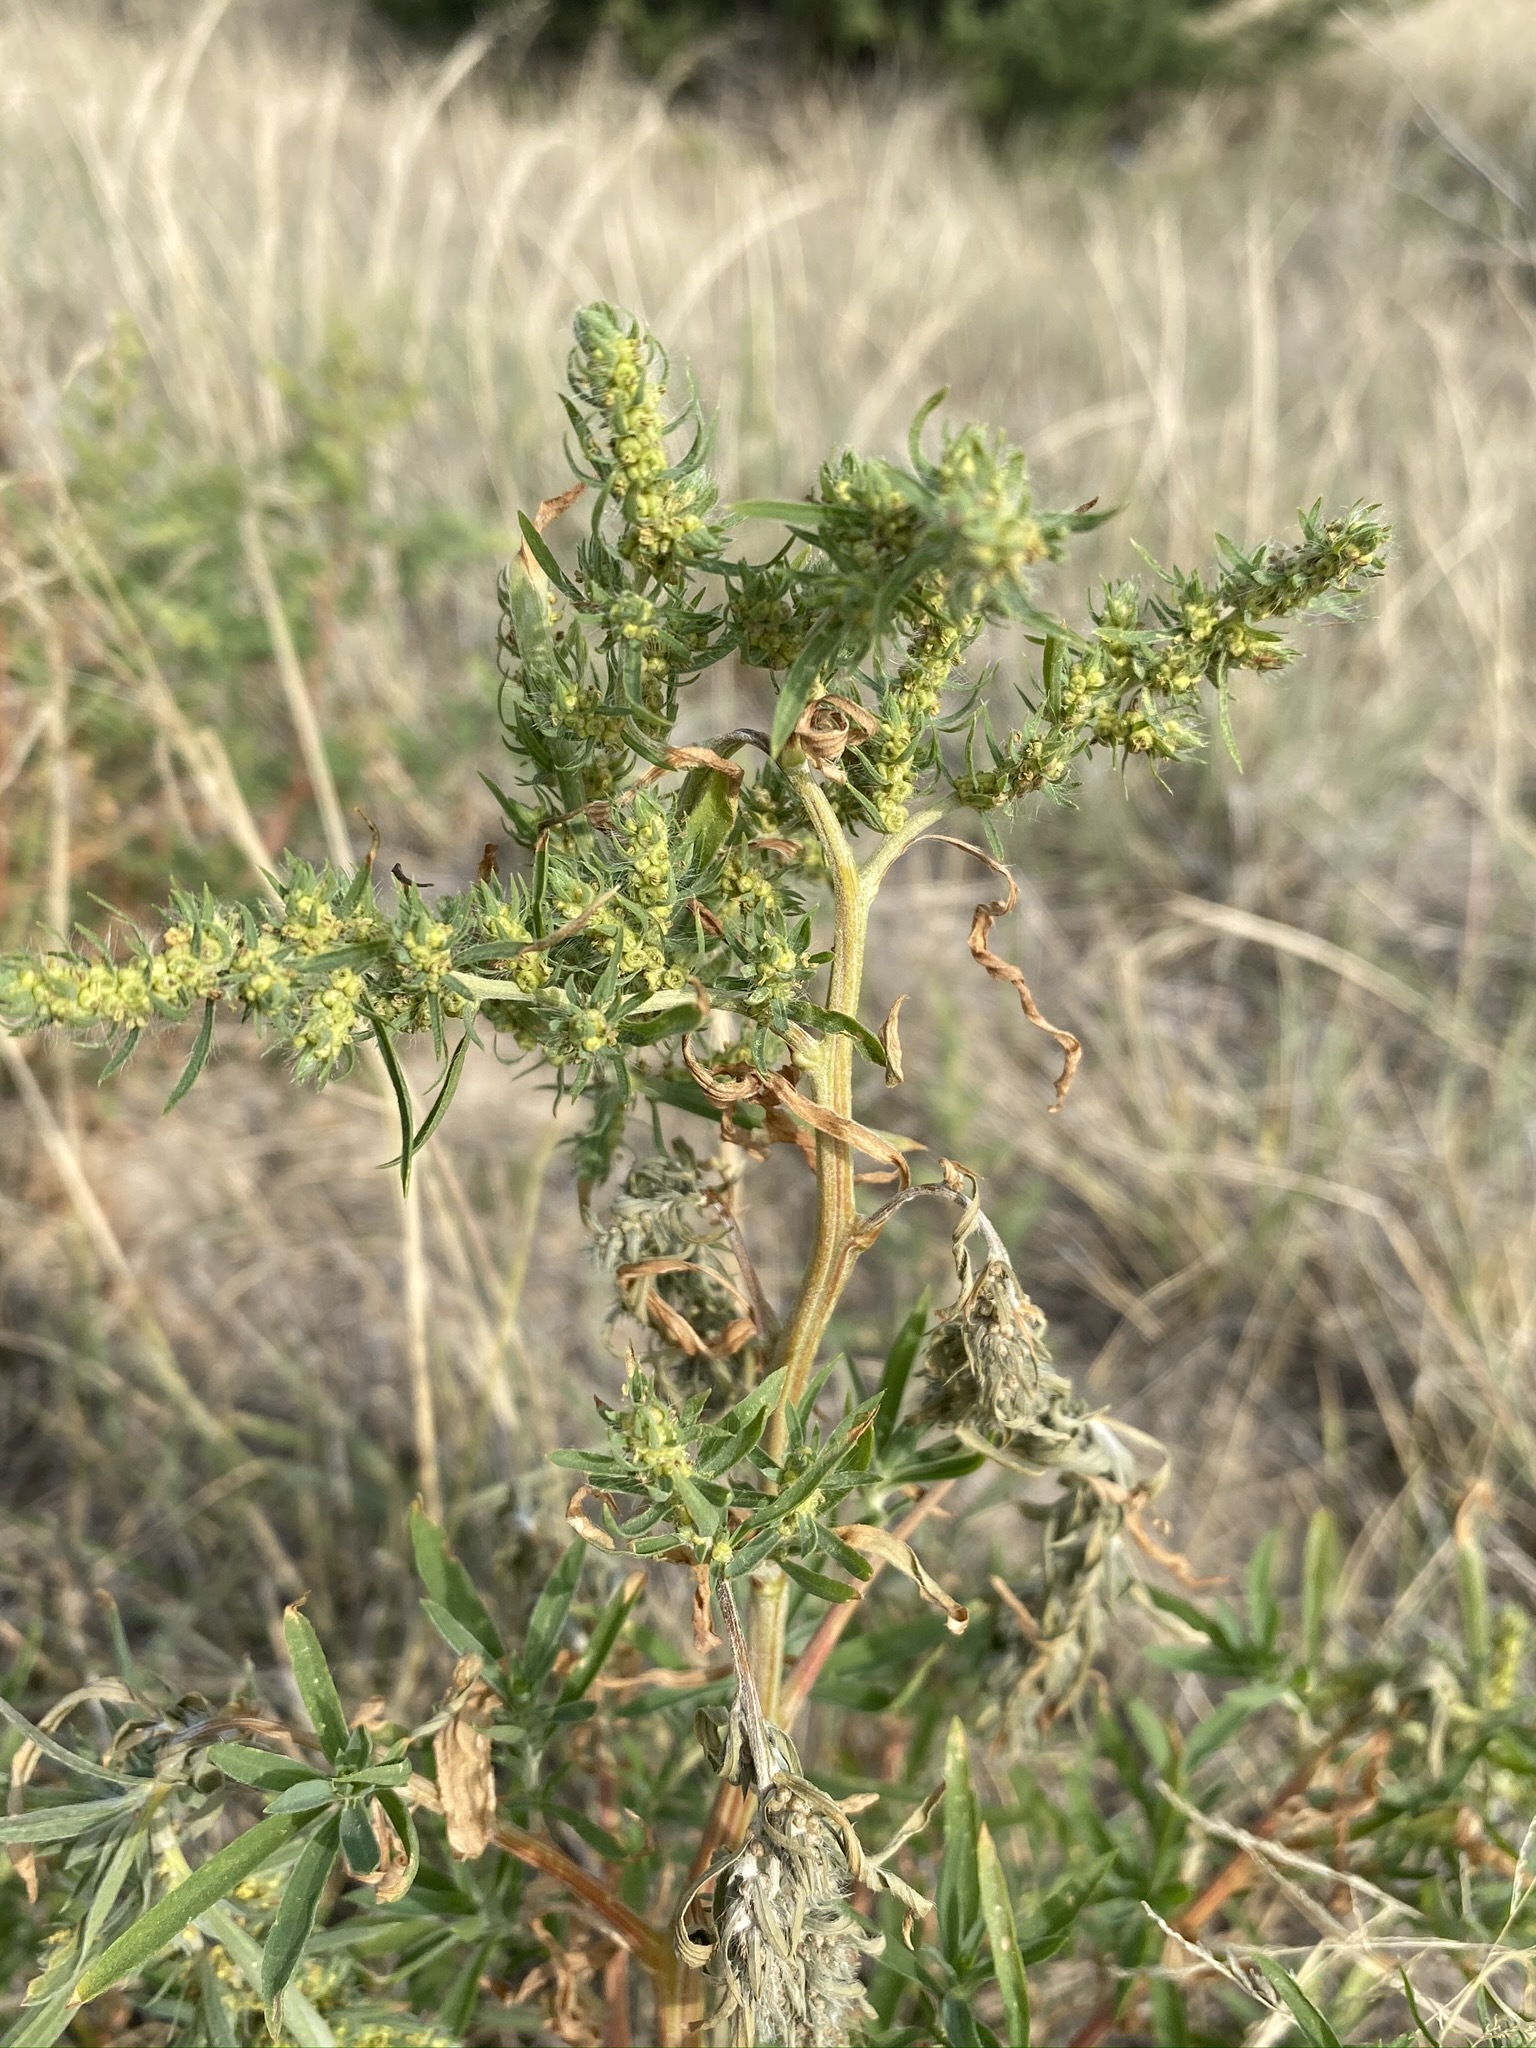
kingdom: Plantae
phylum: Tracheophyta
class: Magnoliopsida
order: Caryophyllales
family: Amaranthaceae
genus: Bassia
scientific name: Bassia scoparia
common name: Belvedere
